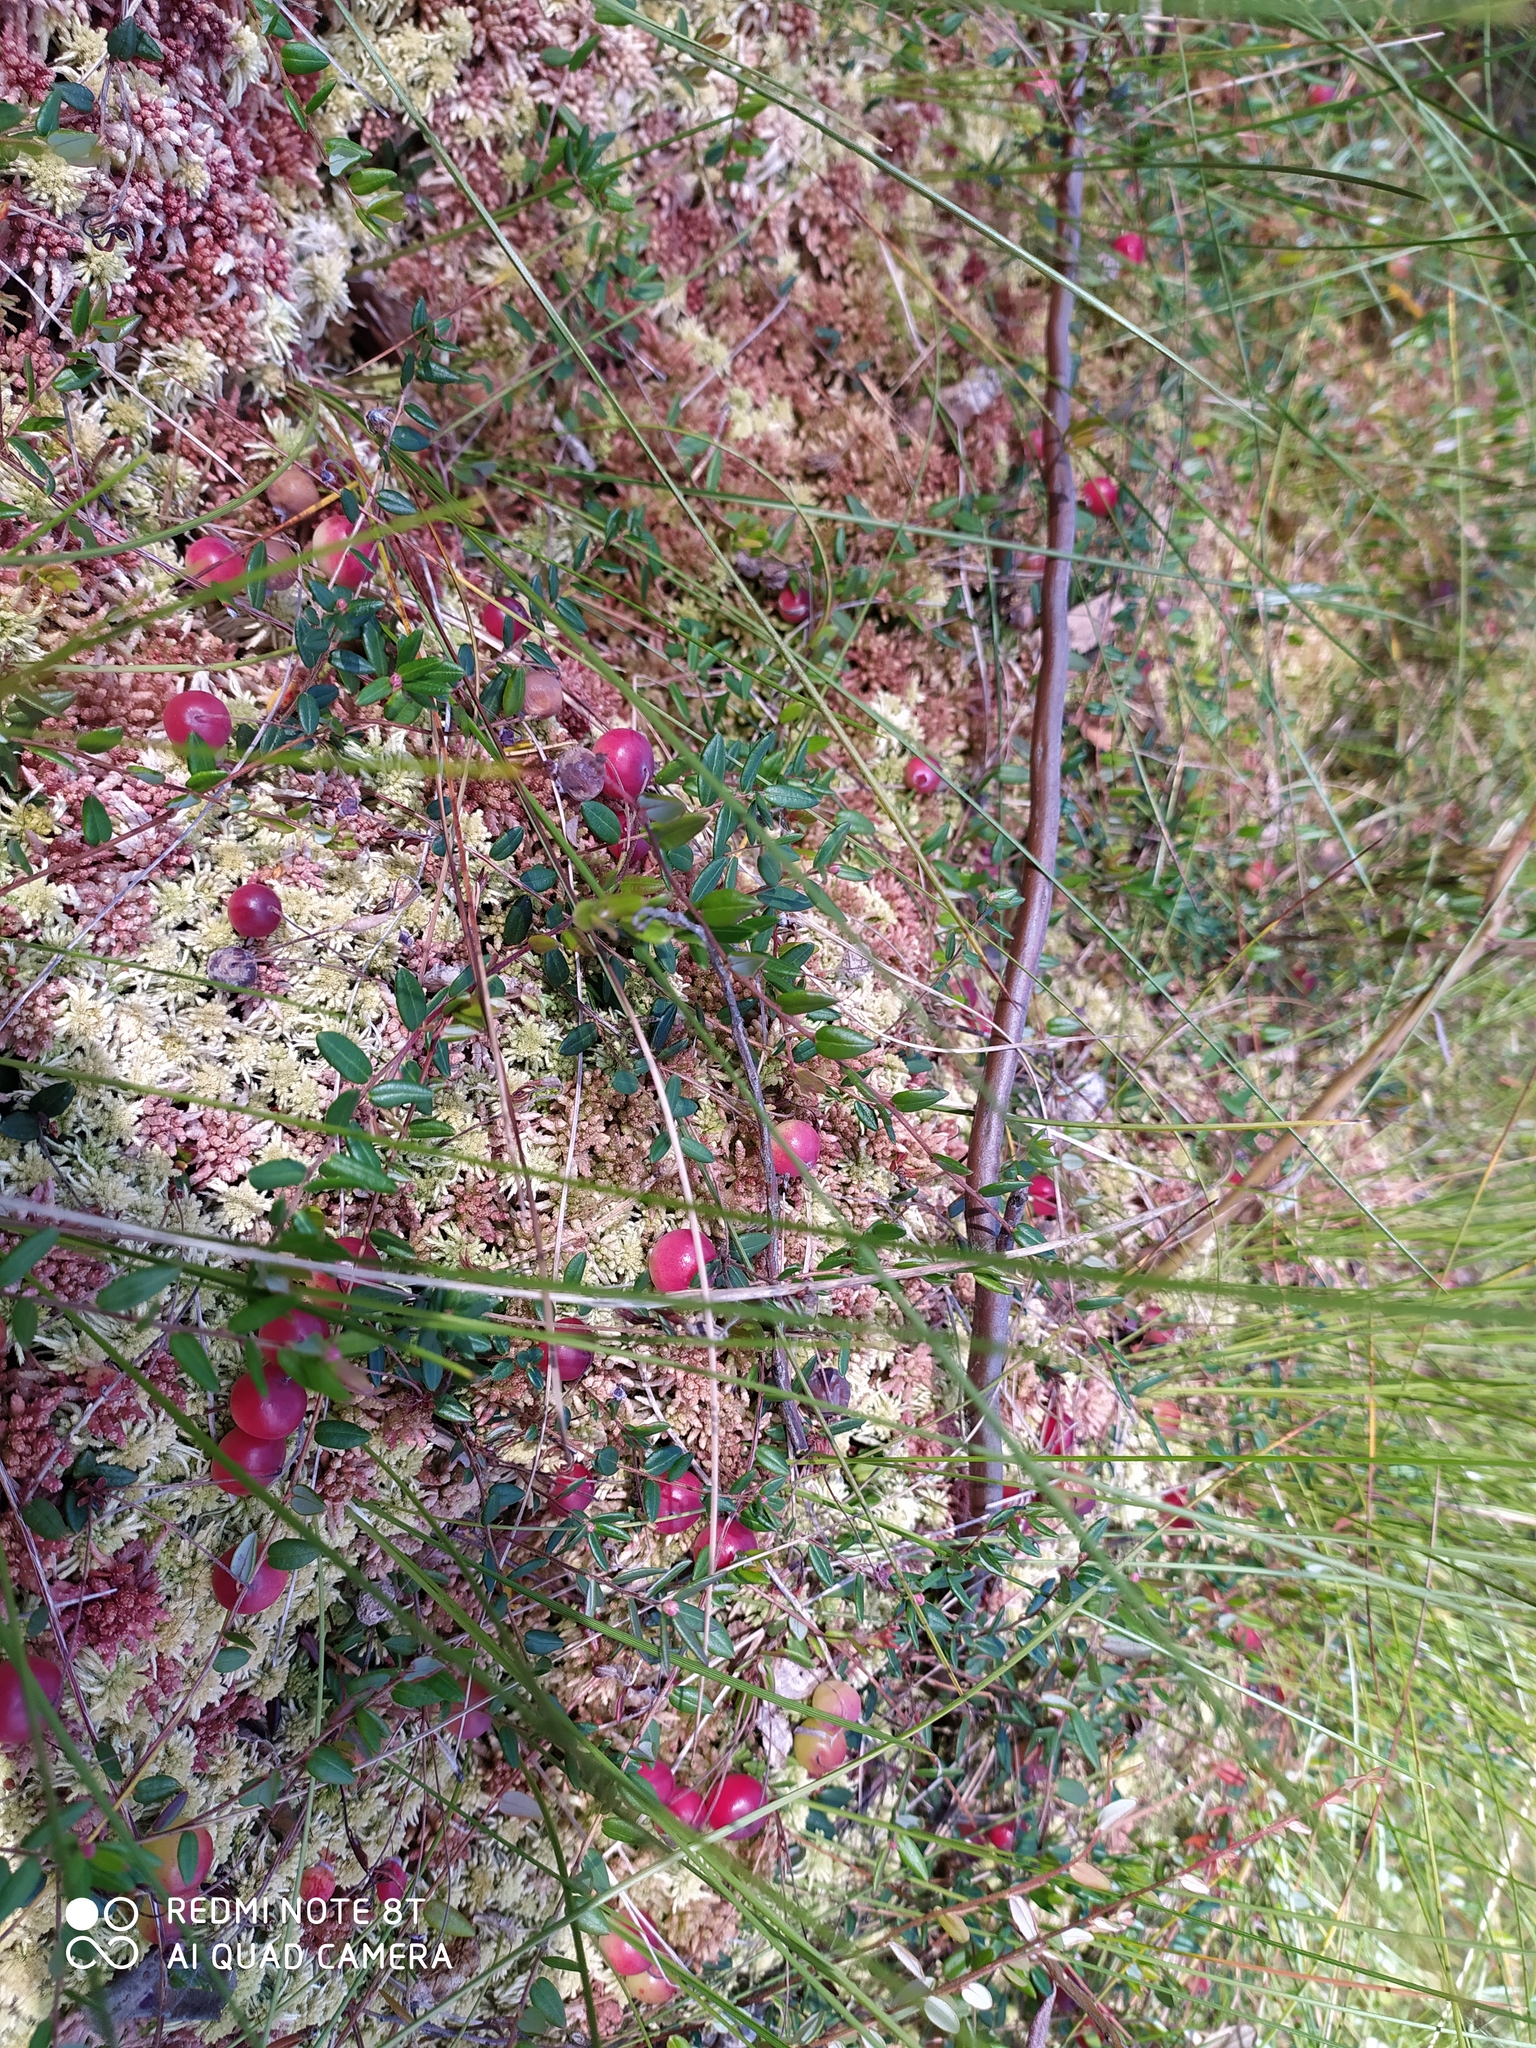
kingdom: Plantae
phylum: Tracheophyta
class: Magnoliopsida
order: Ericales
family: Ericaceae
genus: Vaccinium
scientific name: Vaccinium oxycoccos
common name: Cranberry
